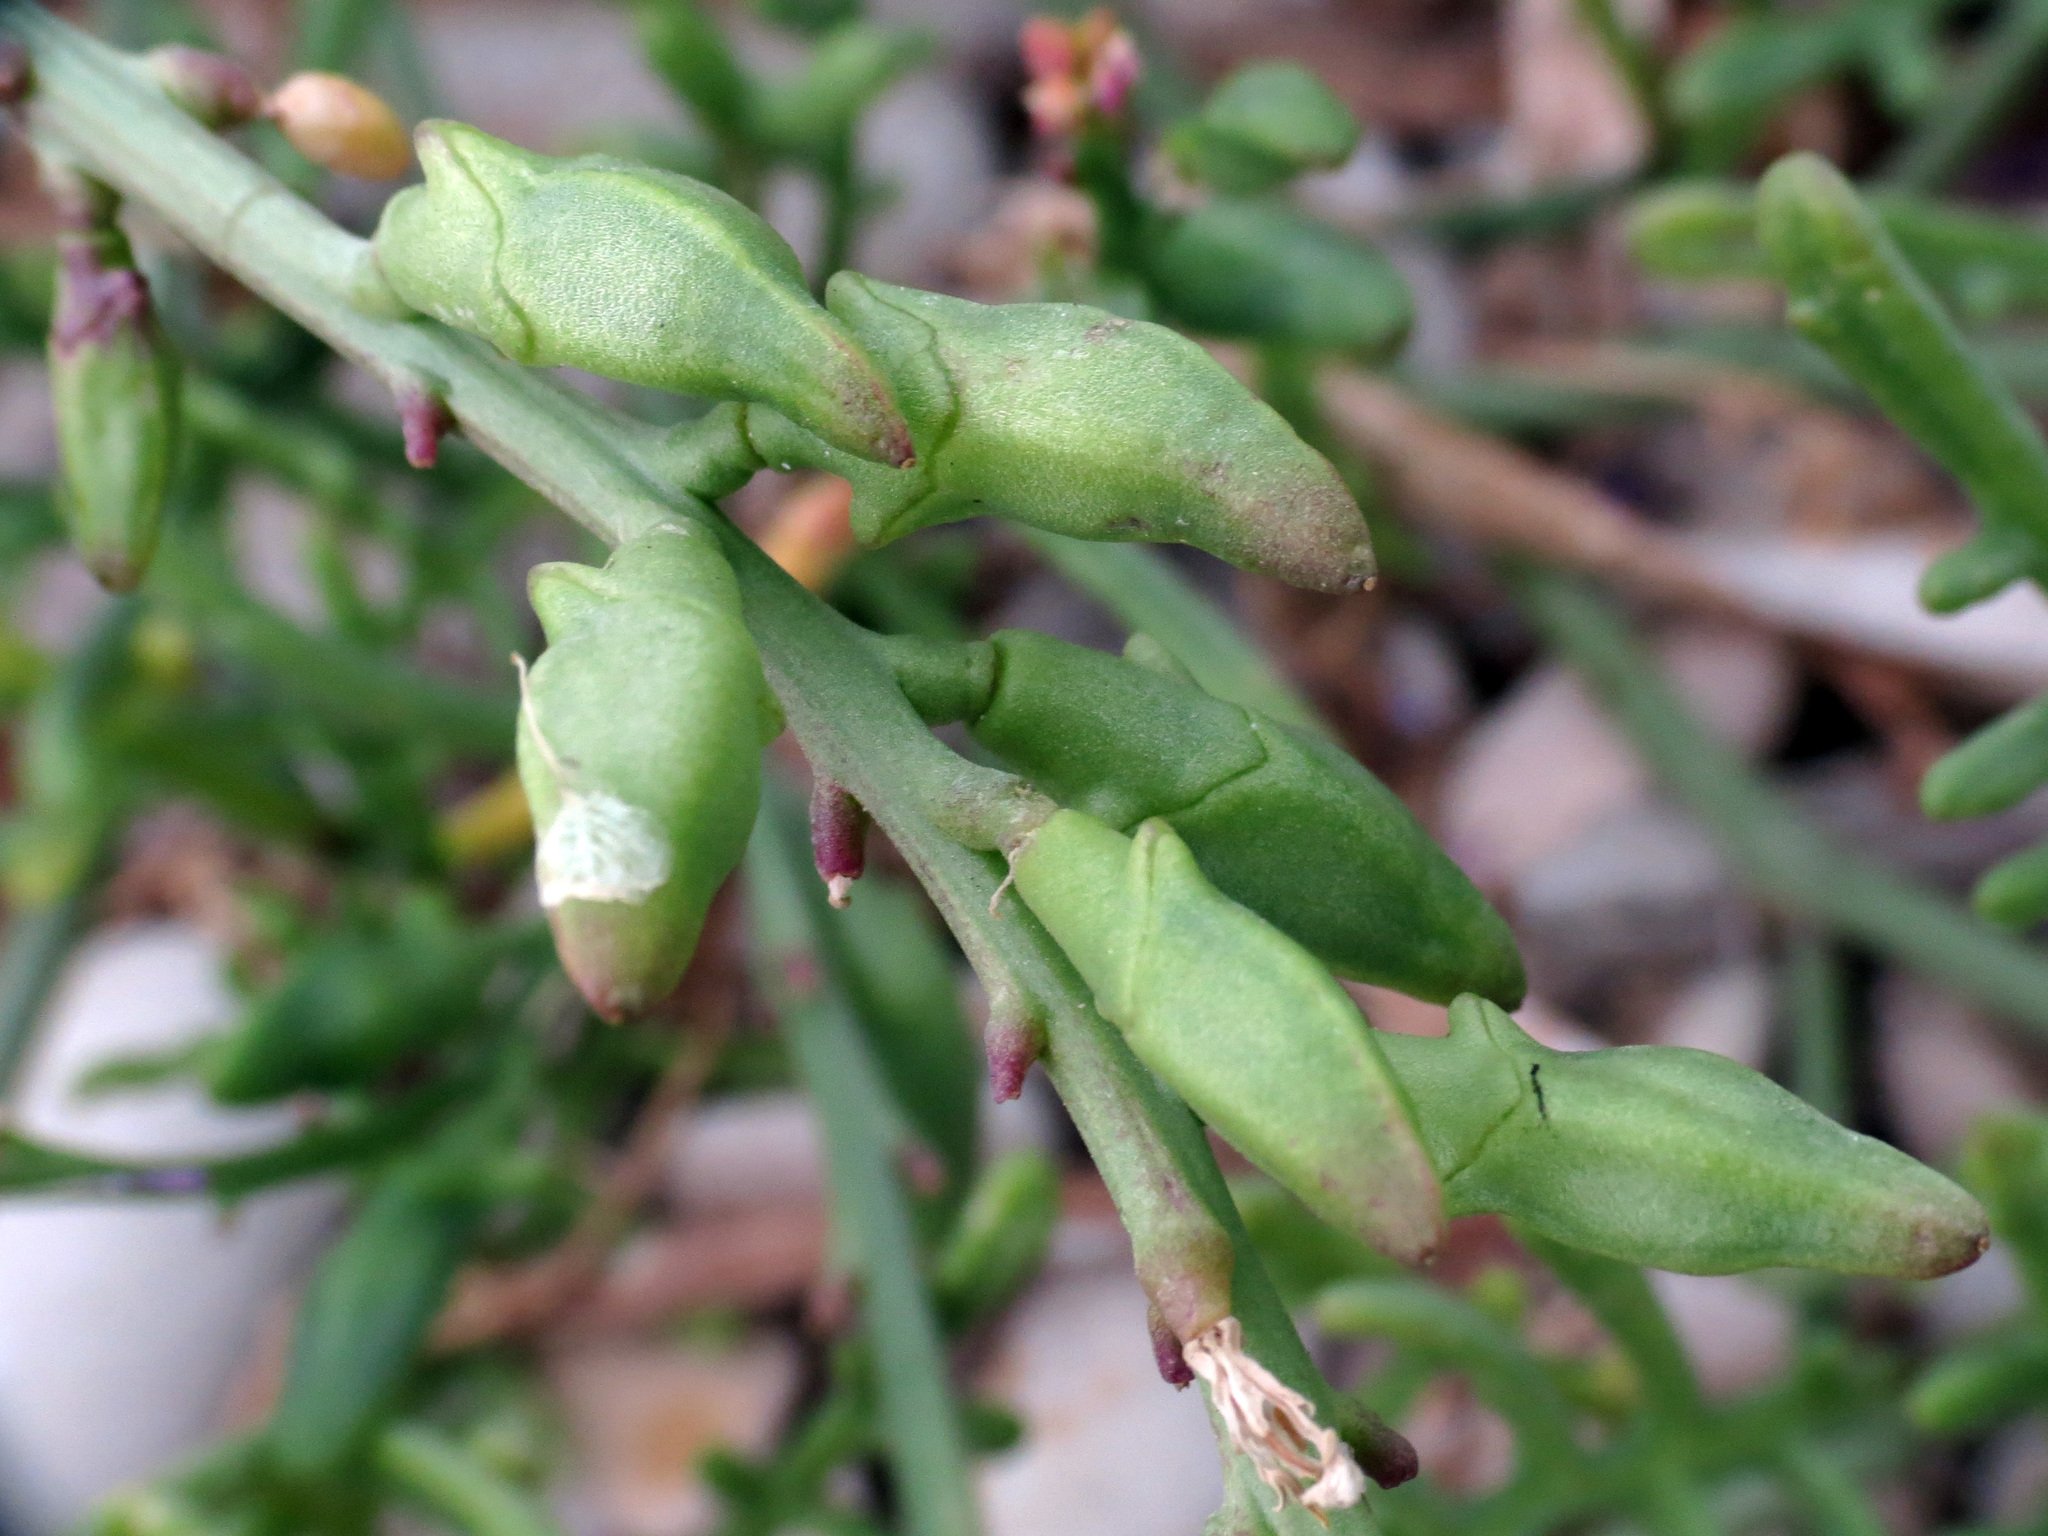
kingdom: Plantae
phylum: Tracheophyta
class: Magnoliopsida
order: Brassicales
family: Brassicaceae
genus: Cakile
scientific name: Cakile maritima
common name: Sea rocket
